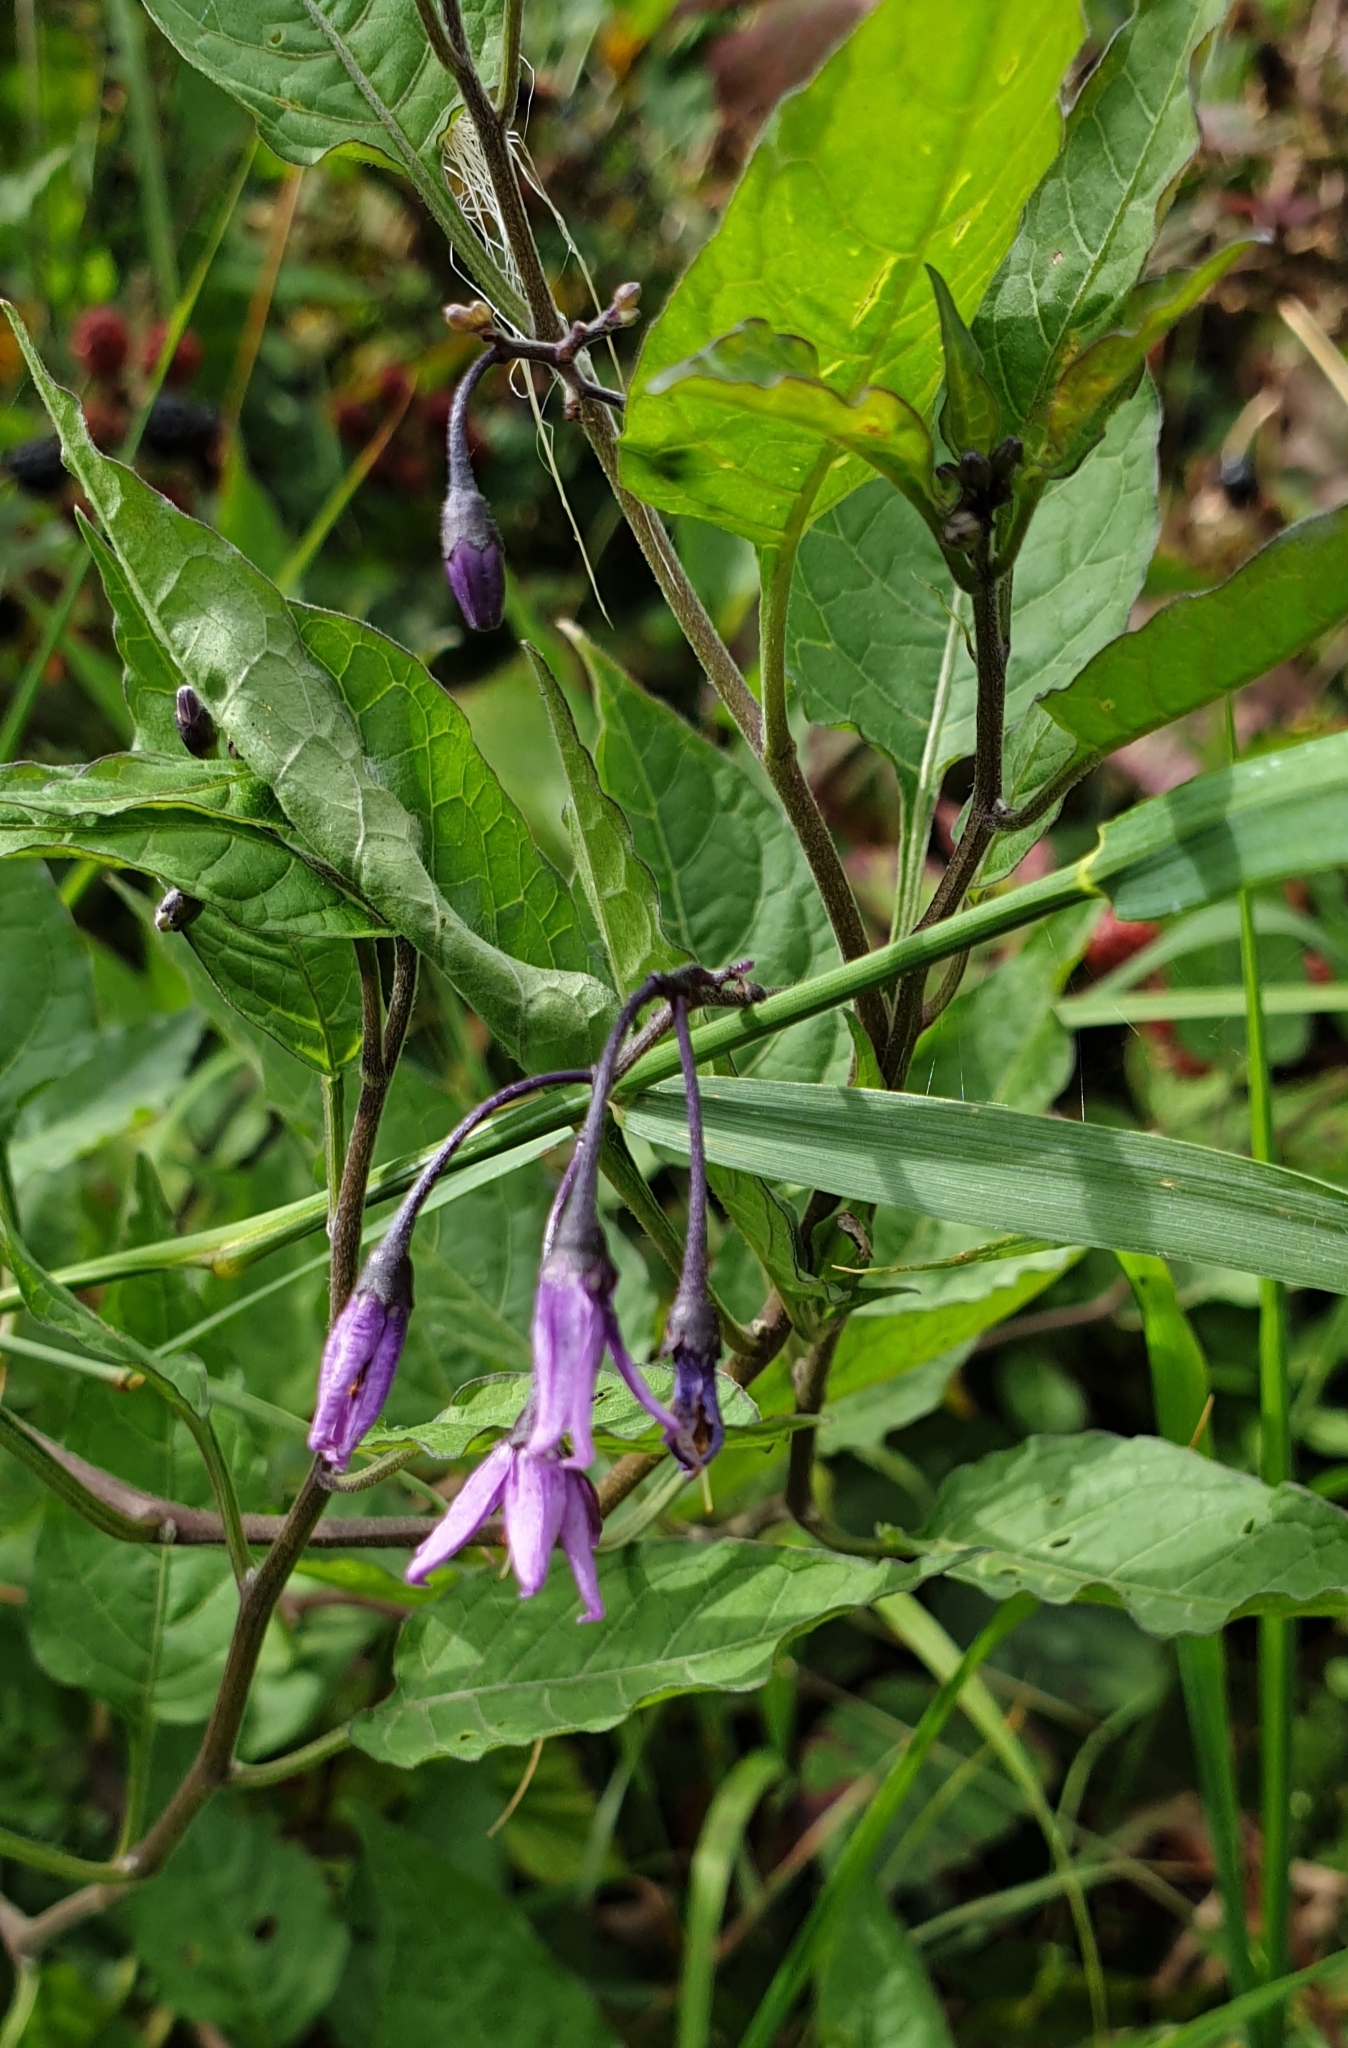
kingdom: Plantae
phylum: Tracheophyta
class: Magnoliopsida
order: Solanales
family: Solanaceae
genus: Solanum
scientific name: Solanum dulcamara
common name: Climbing nightshade
